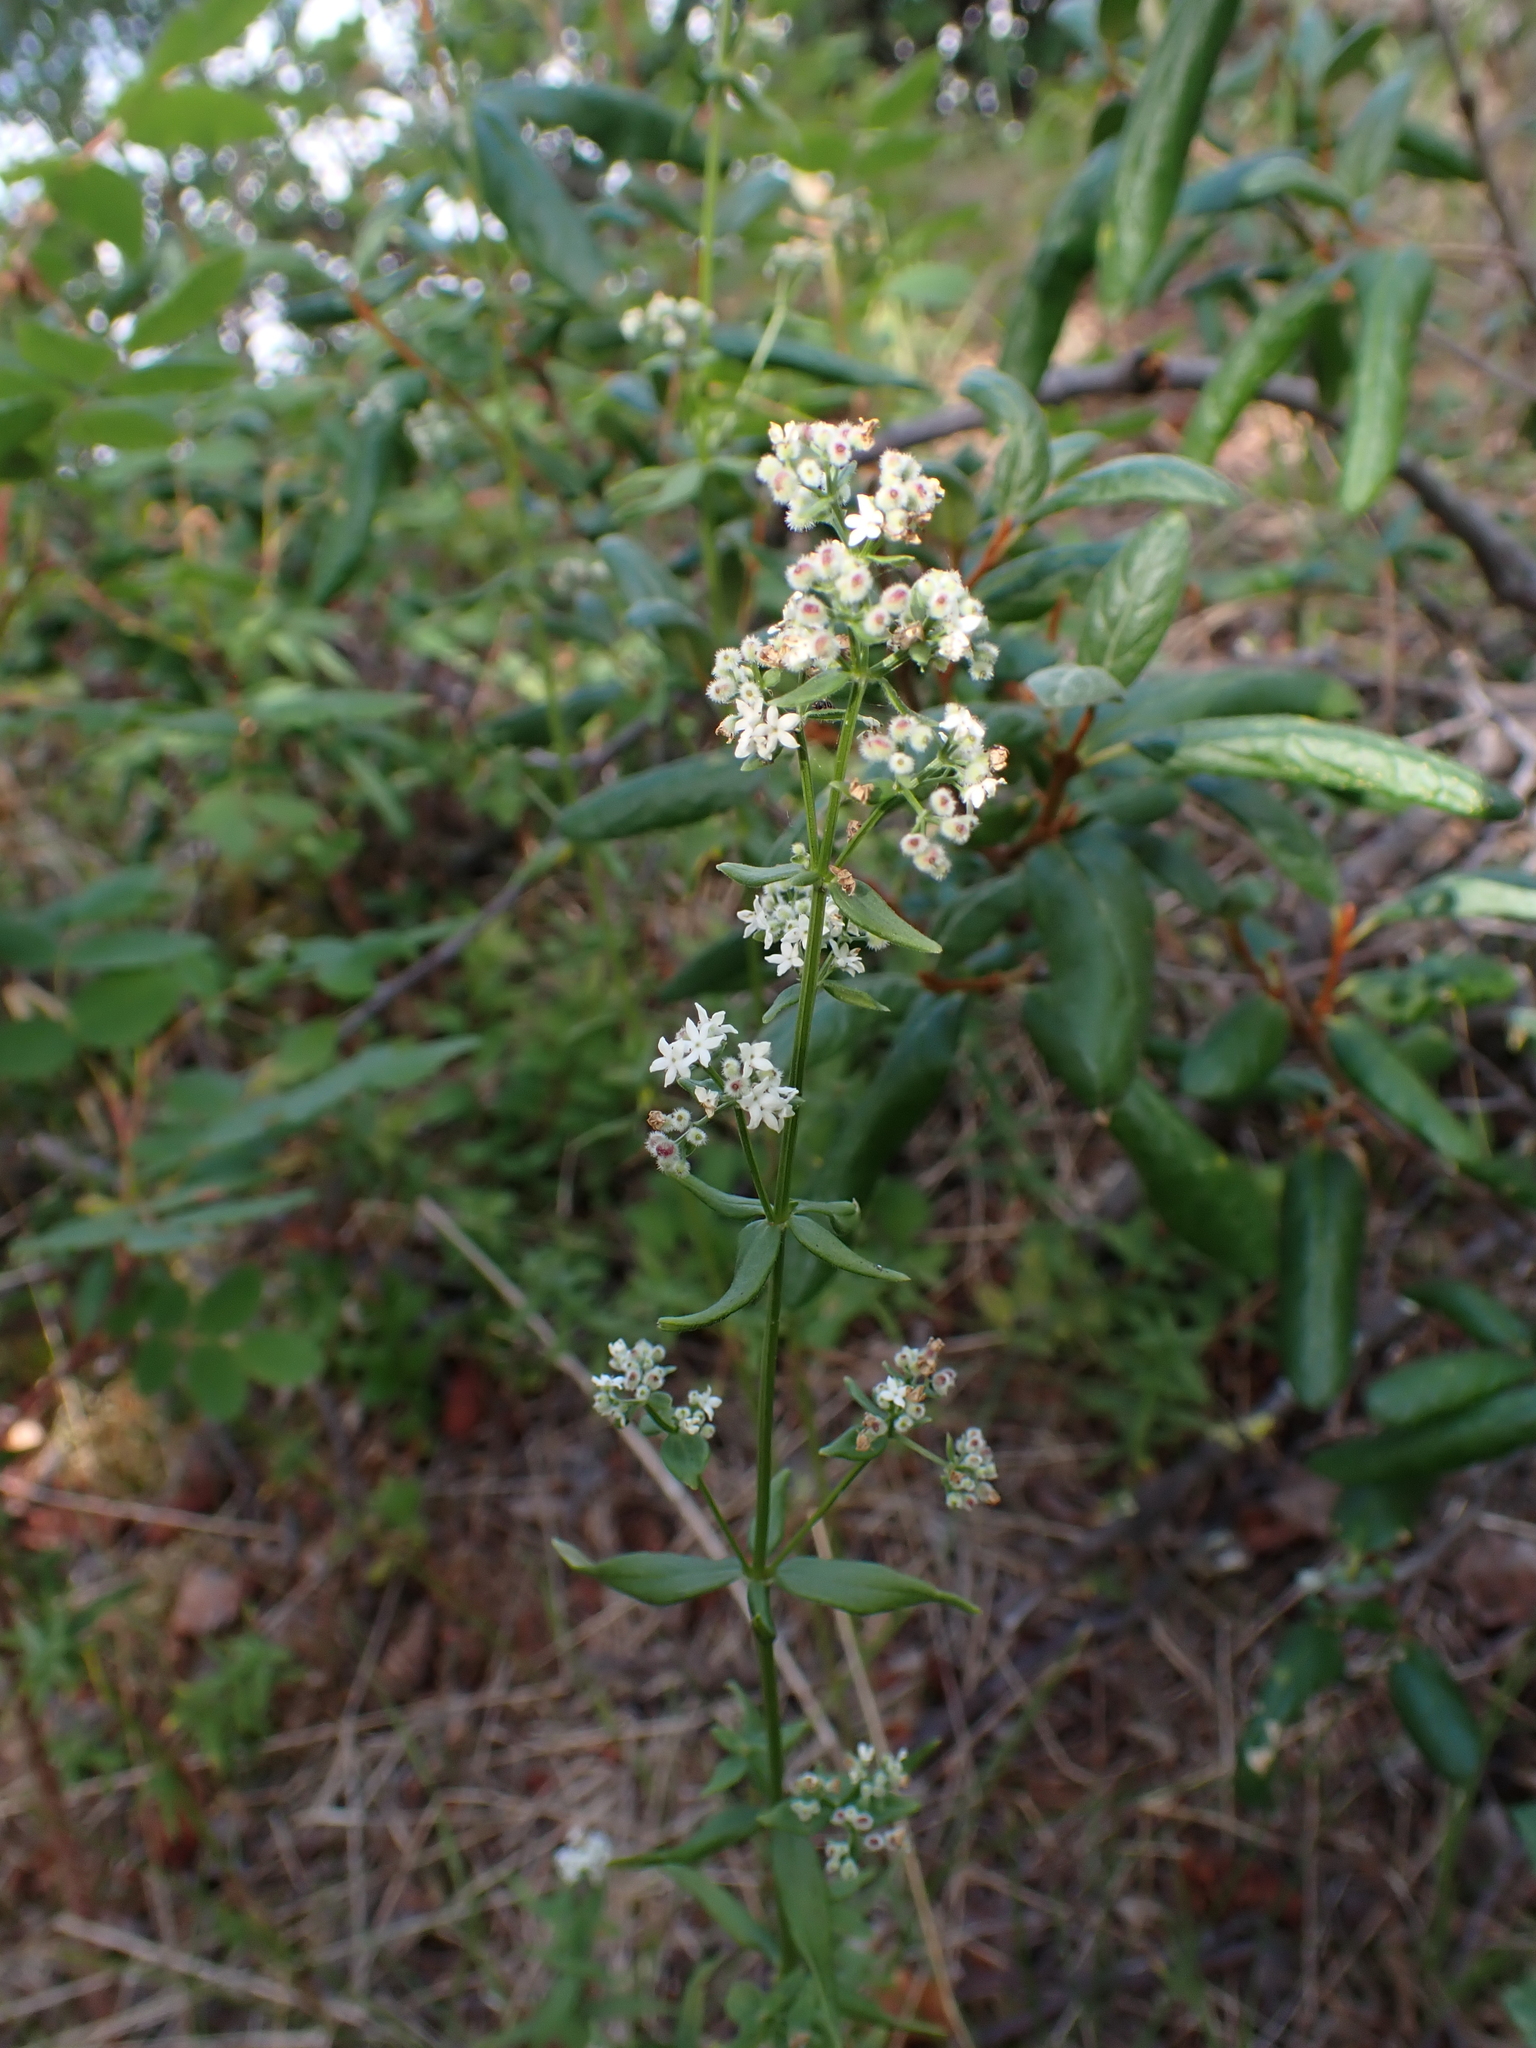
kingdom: Plantae
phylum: Tracheophyta
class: Magnoliopsida
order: Gentianales
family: Rubiaceae
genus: Galium
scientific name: Galium boreale
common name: Northern bedstraw
